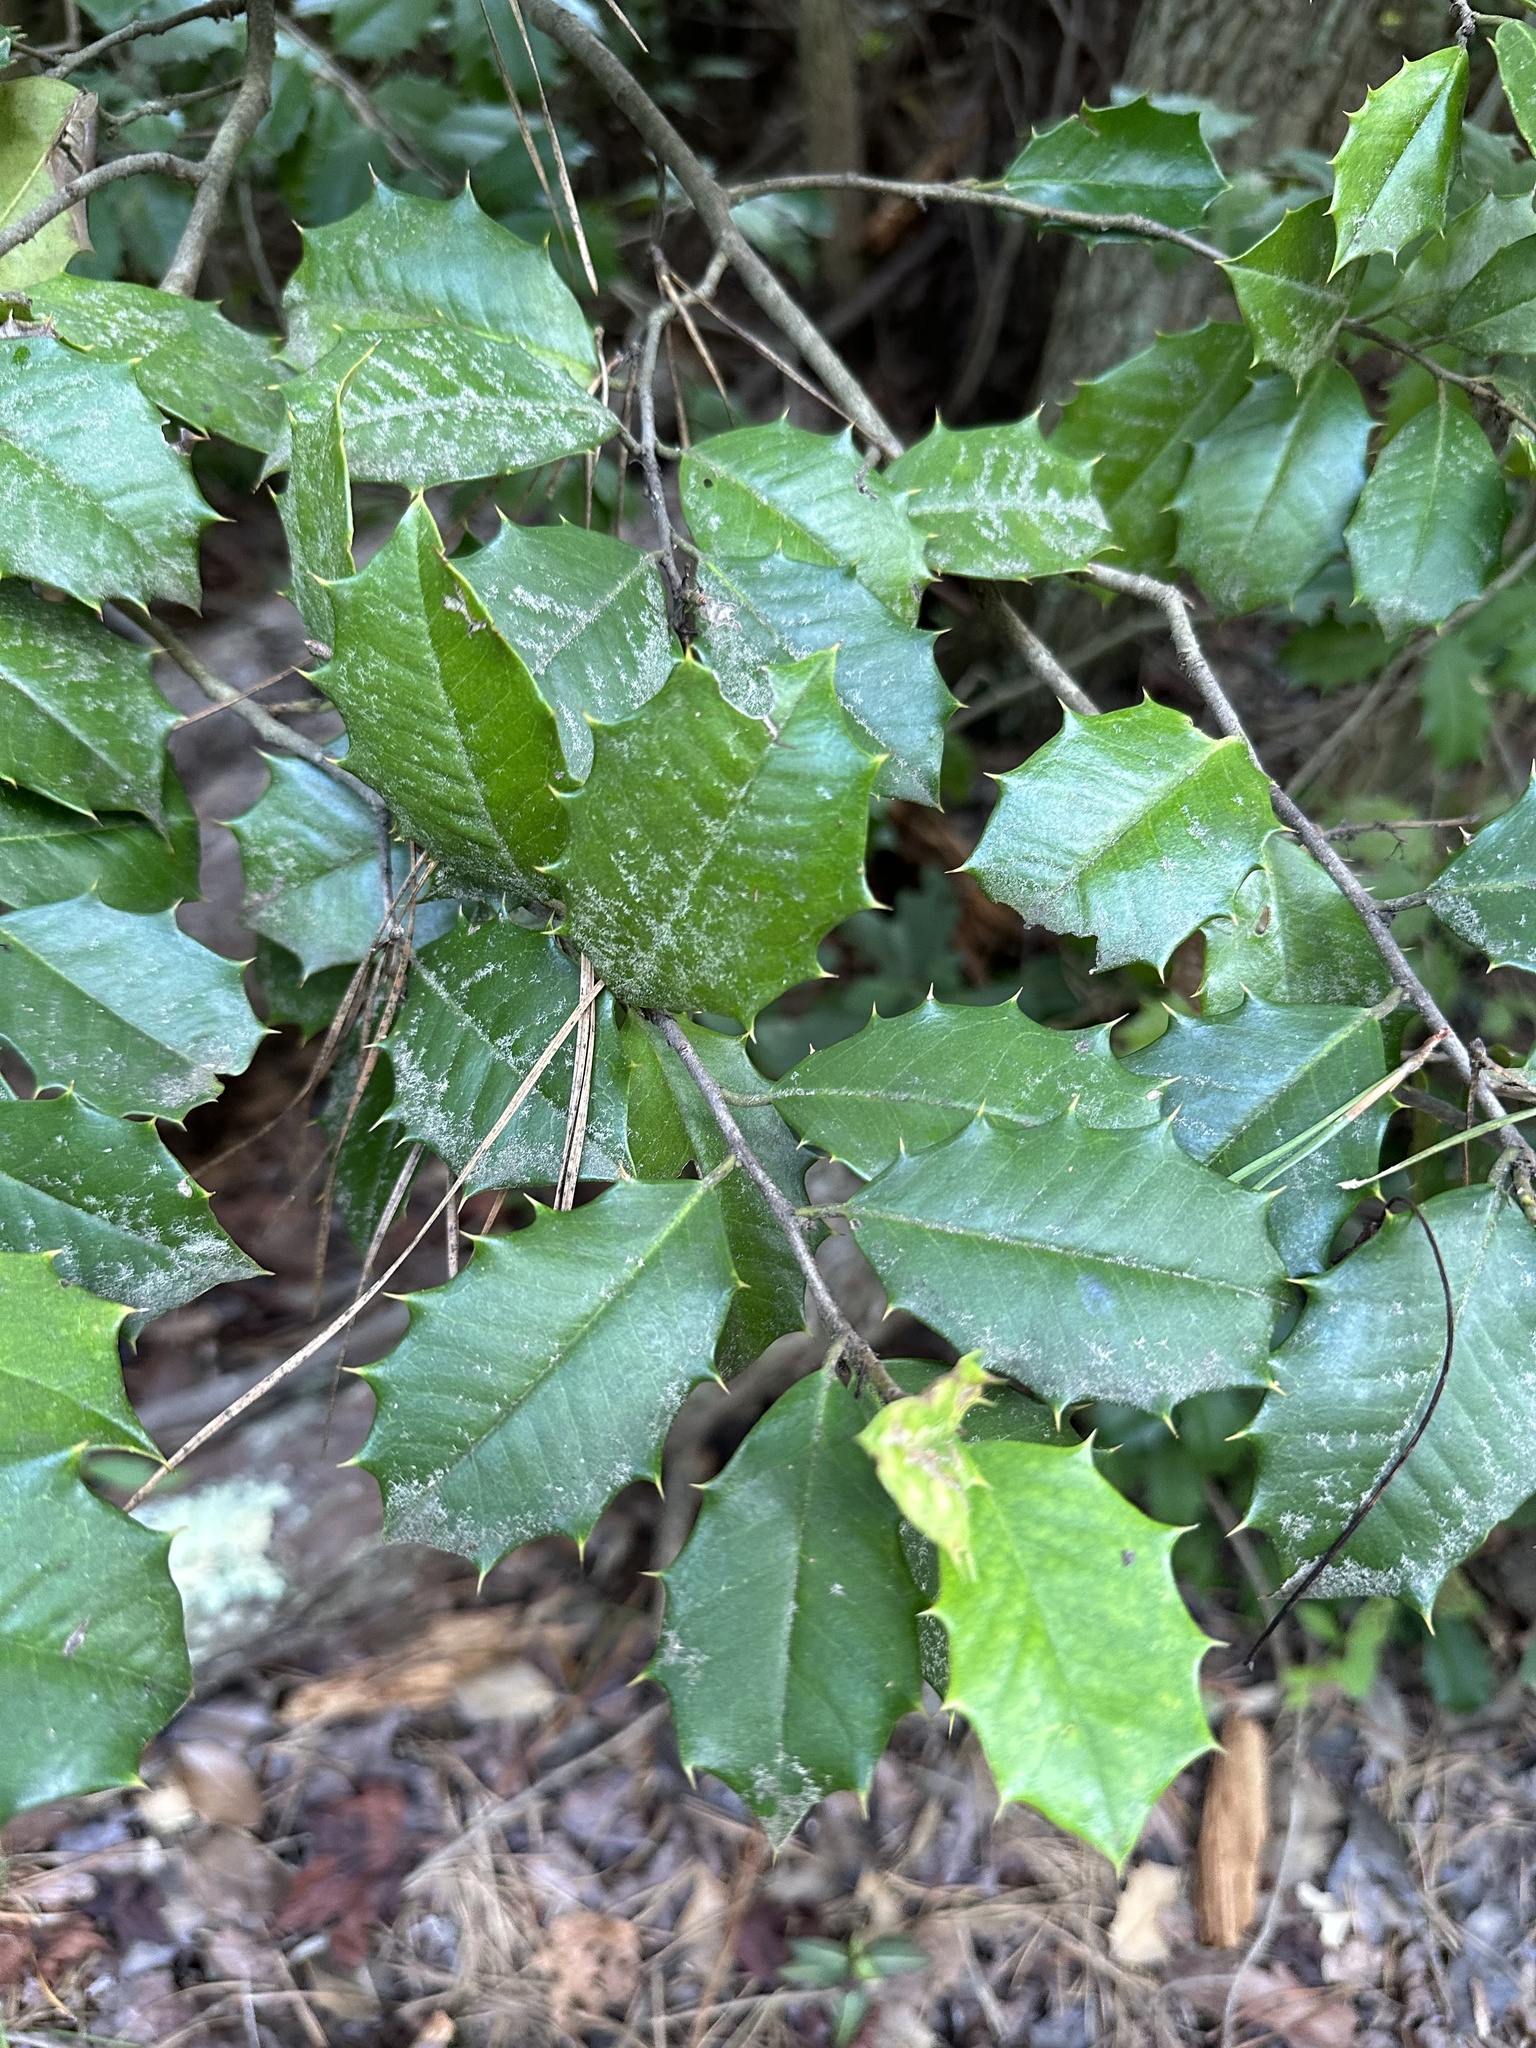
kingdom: Plantae
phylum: Tracheophyta
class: Magnoliopsida
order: Aquifoliales
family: Aquifoliaceae
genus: Ilex
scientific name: Ilex opaca
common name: American holly
